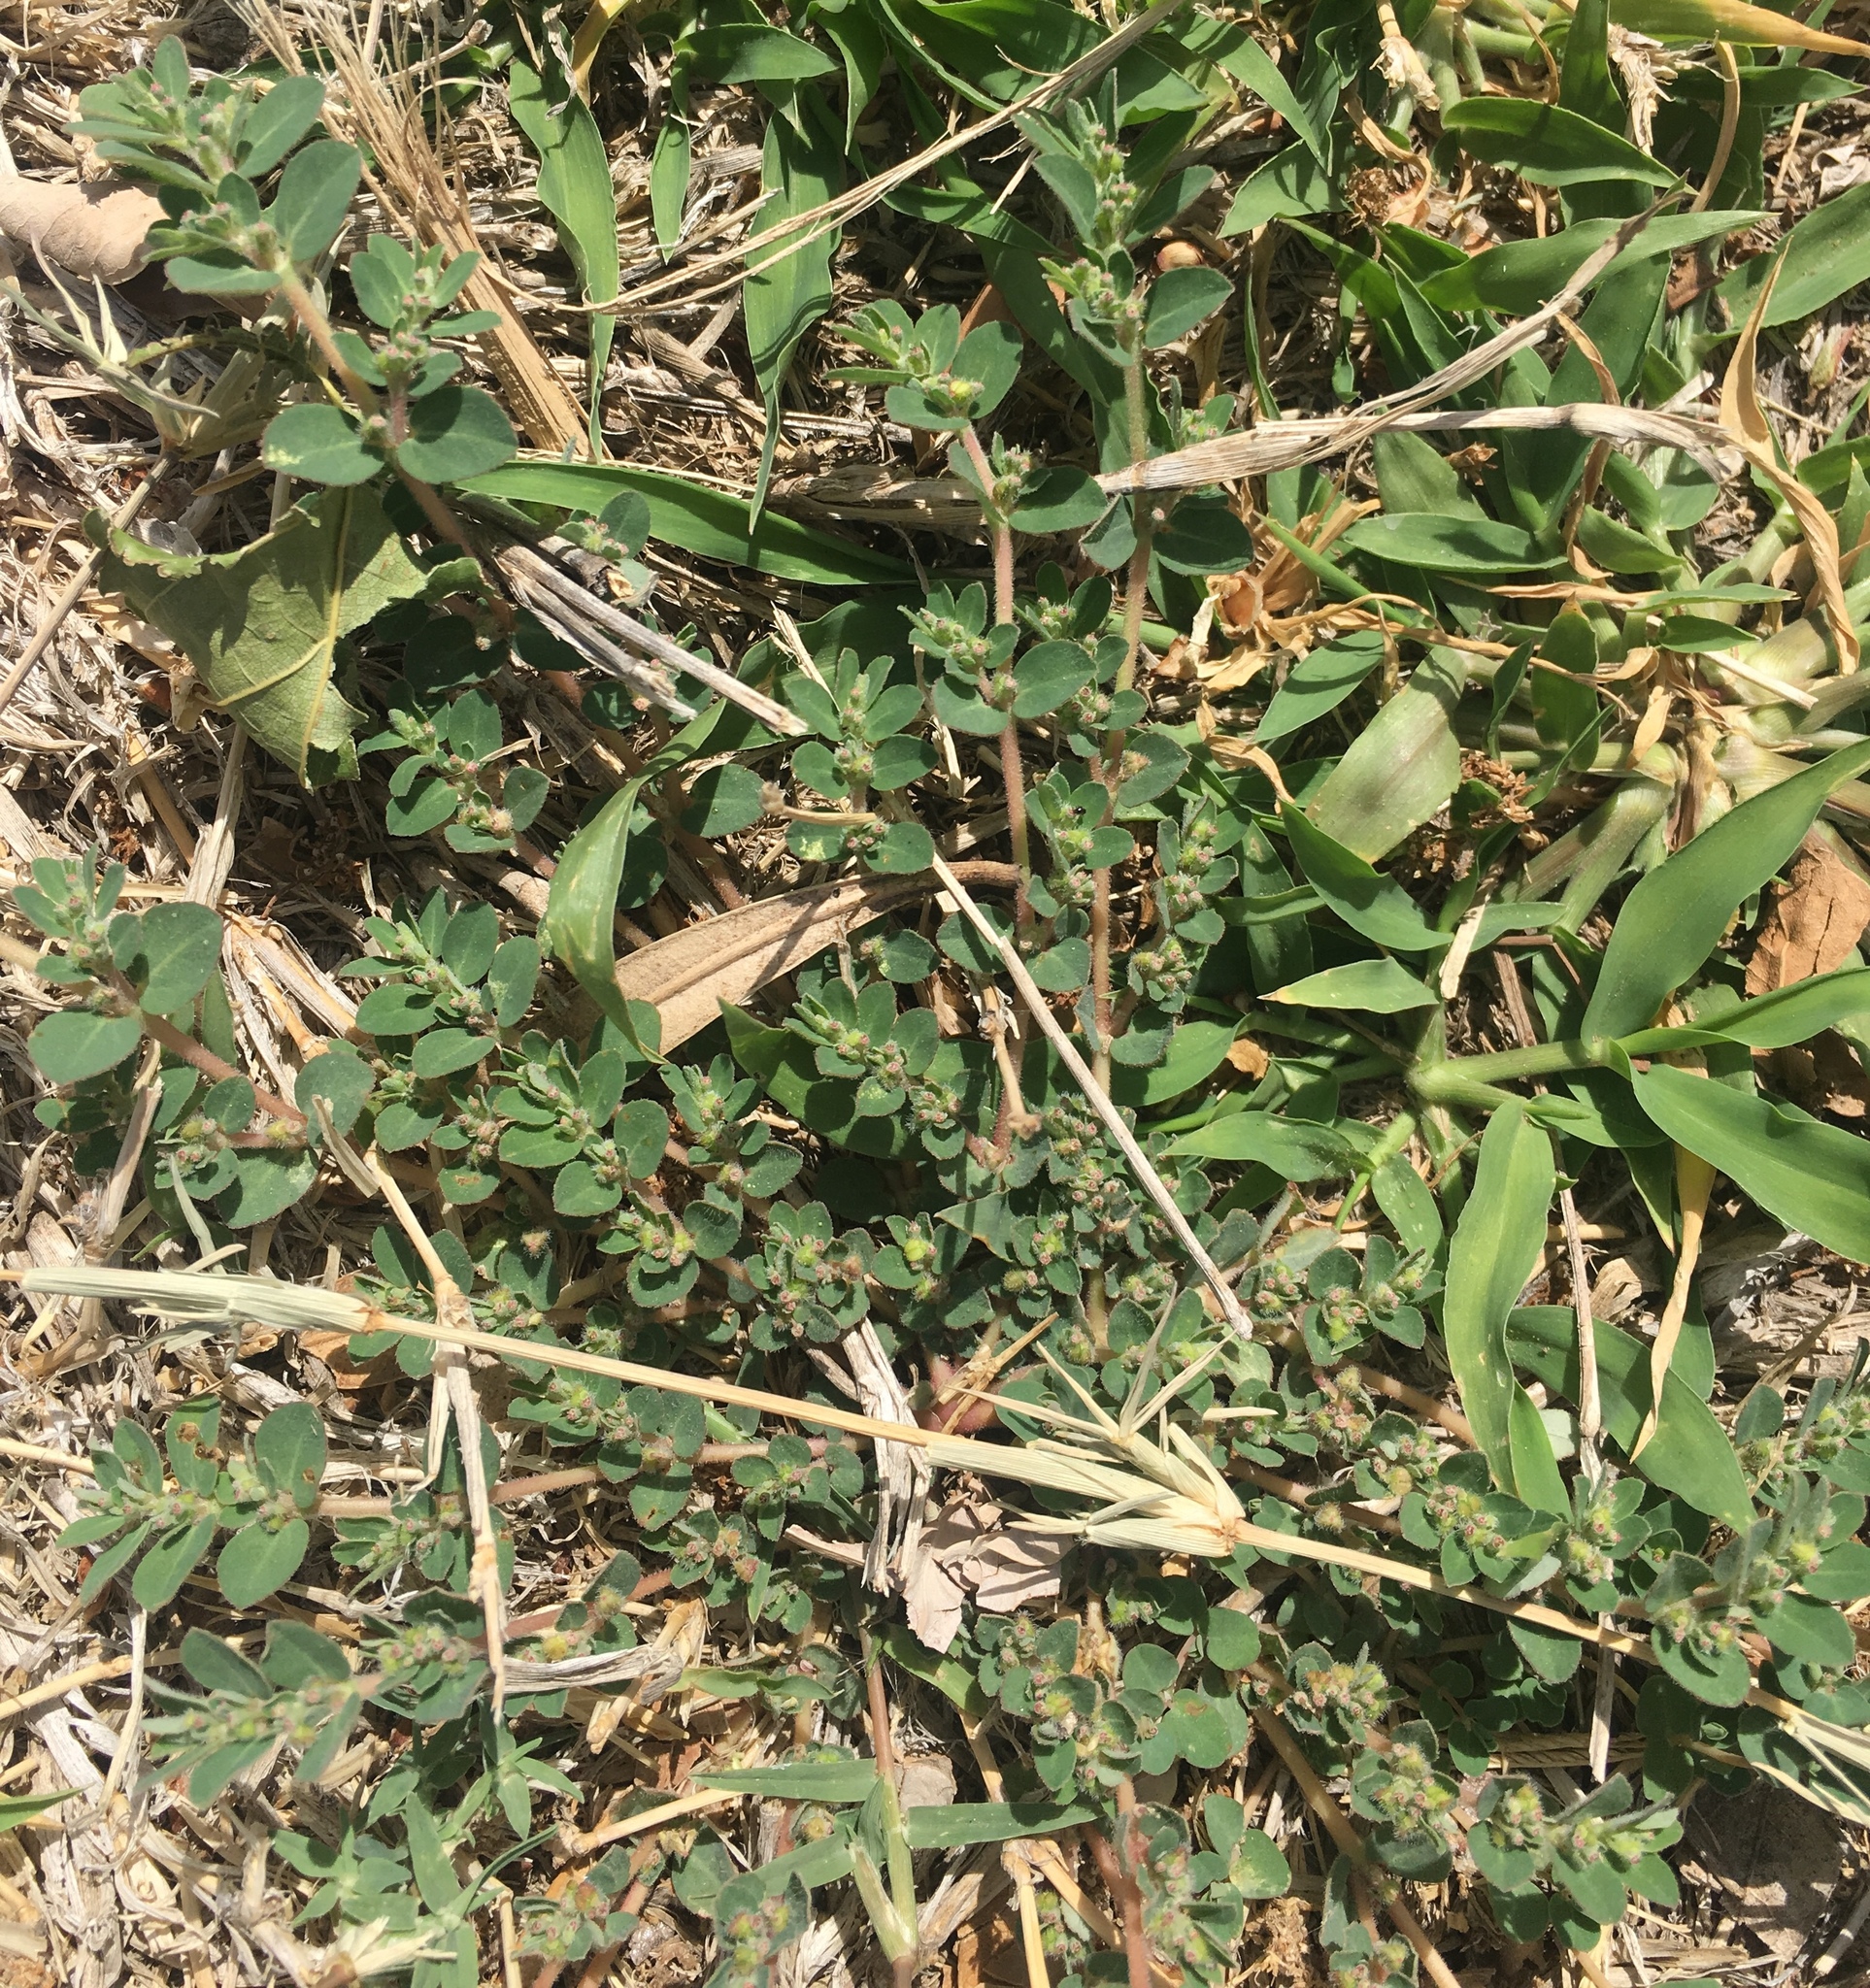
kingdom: Plantae
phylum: Tracheophyta
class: Magnoliopsida
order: Malpighiales
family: Euphorbiaceae
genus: Euphorbia
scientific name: Euphorbia prostrata
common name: Prostrate sandmat
